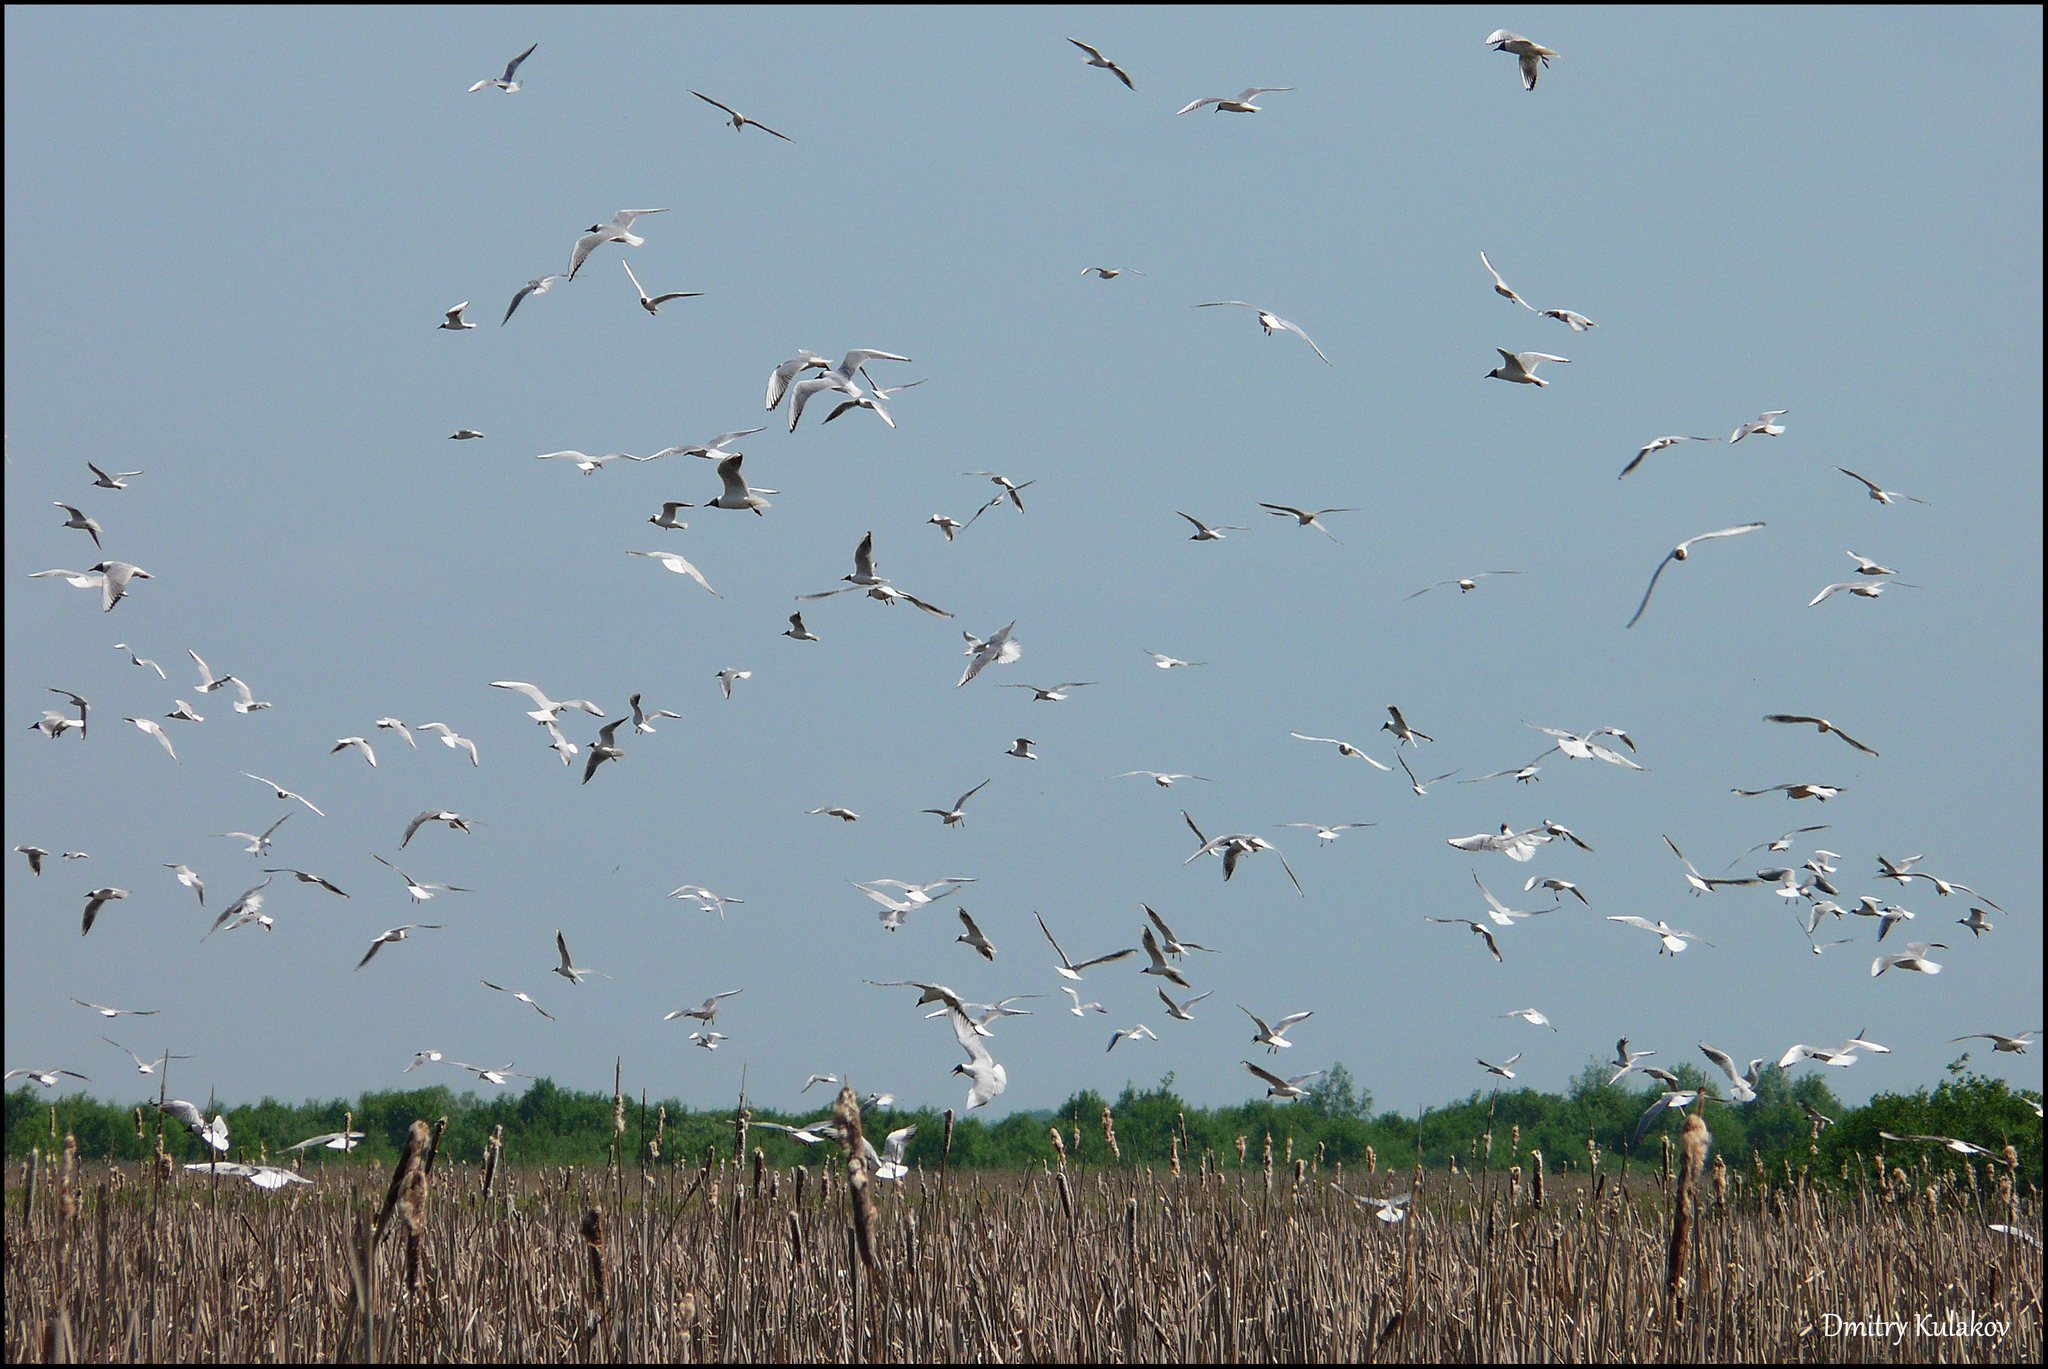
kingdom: Animalia
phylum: Chordata
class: Aves
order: Charadriiformes
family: Laridae
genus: Chroicocephalus
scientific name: Chroicocephalus ridibundus
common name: Black-headed gull
